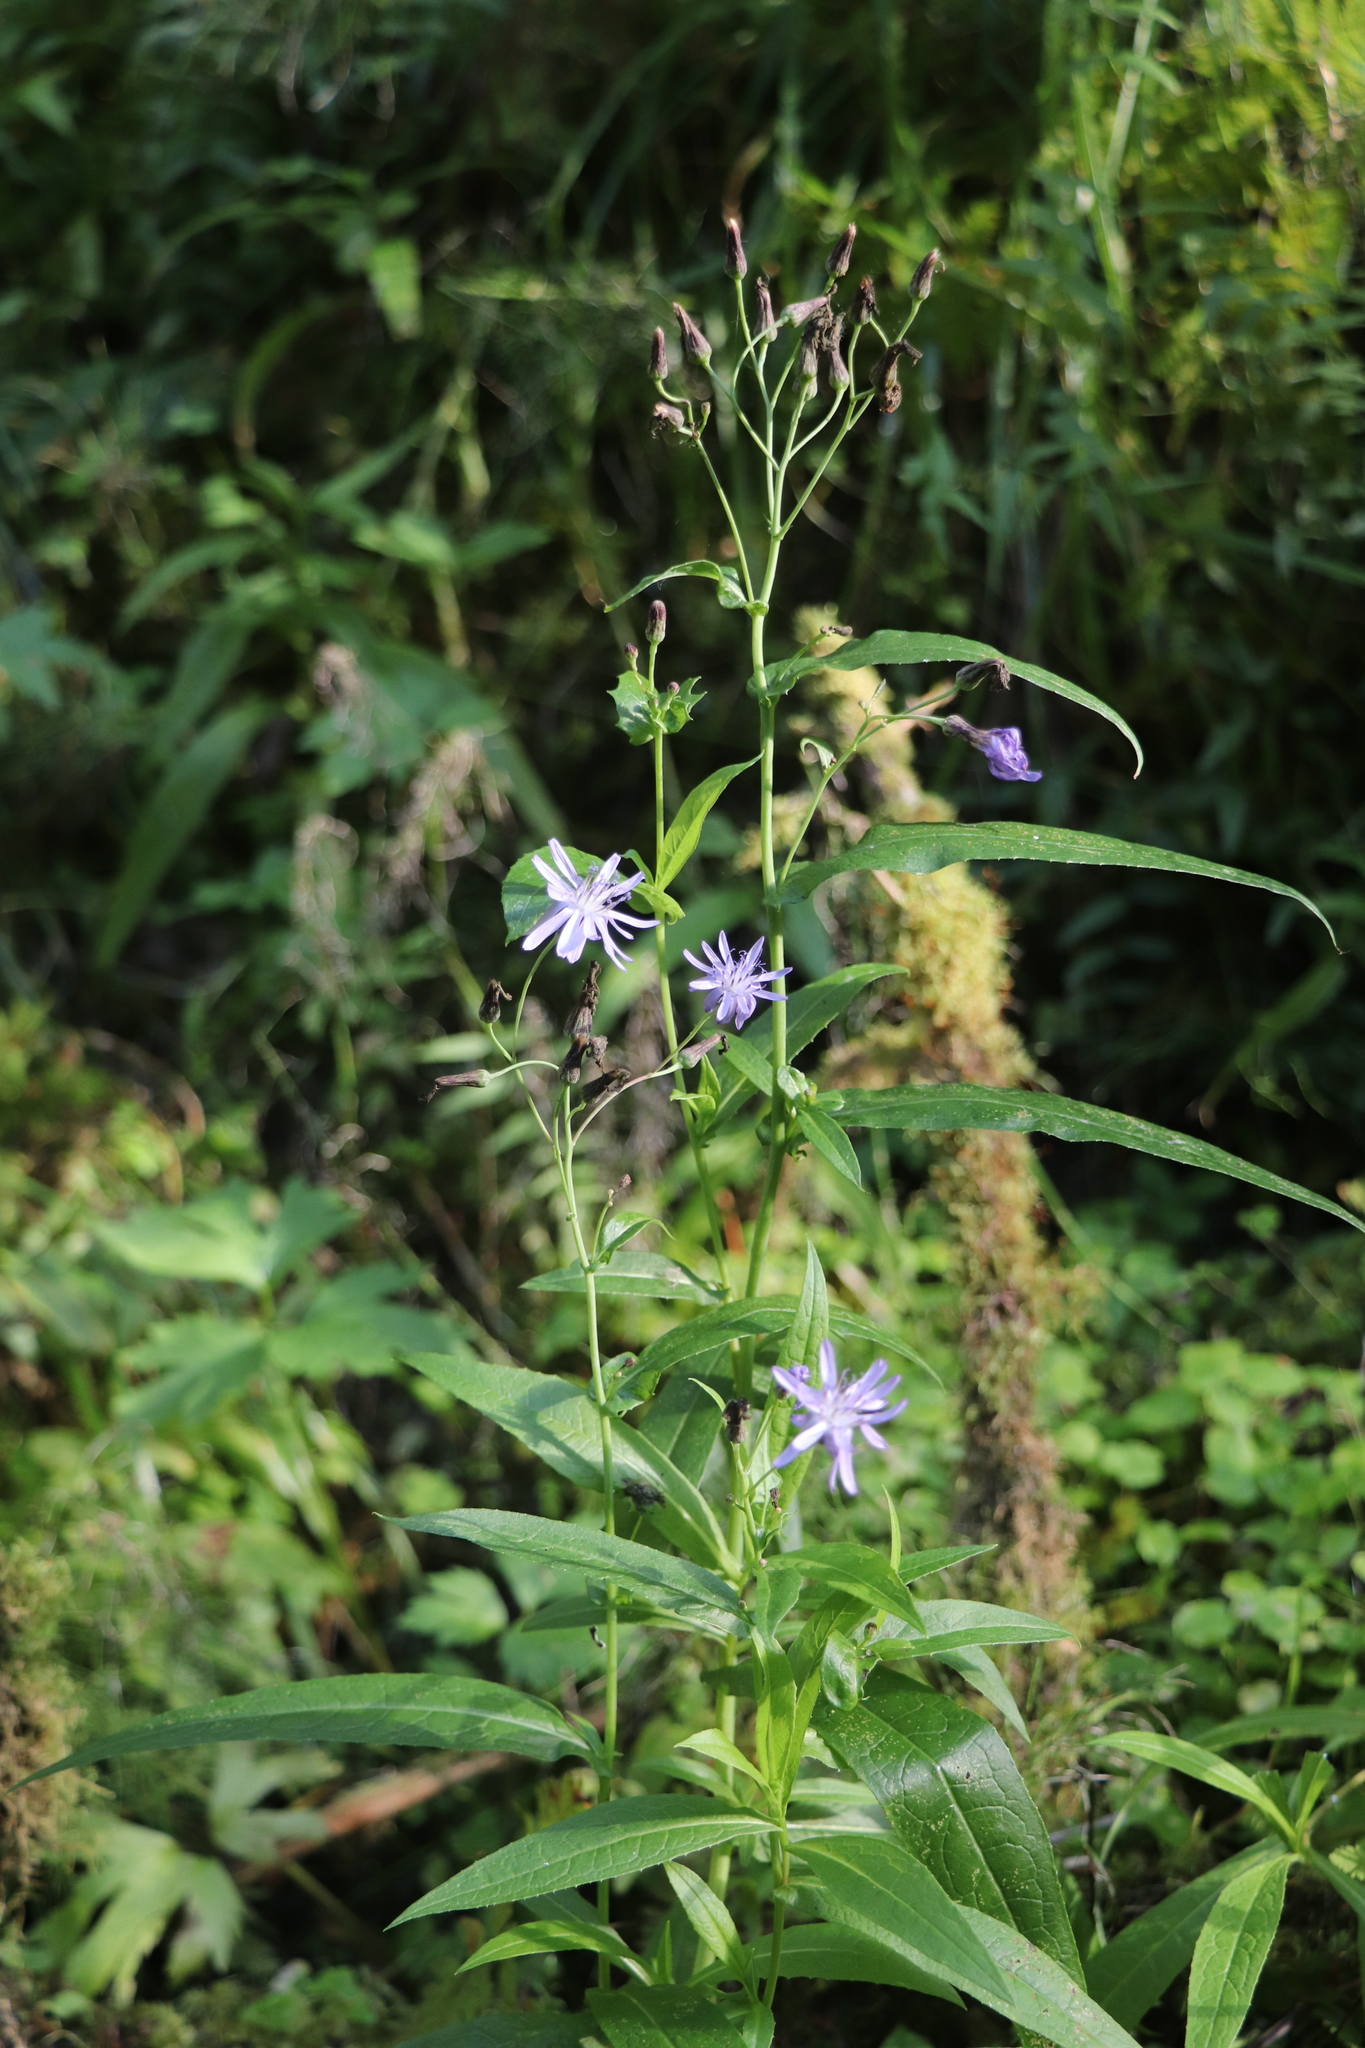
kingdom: Plantae
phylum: Tracheophyta
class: Magnoliopsida
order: Asterales
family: Asteraceae
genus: Lactuca
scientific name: Lactuca sibirica
